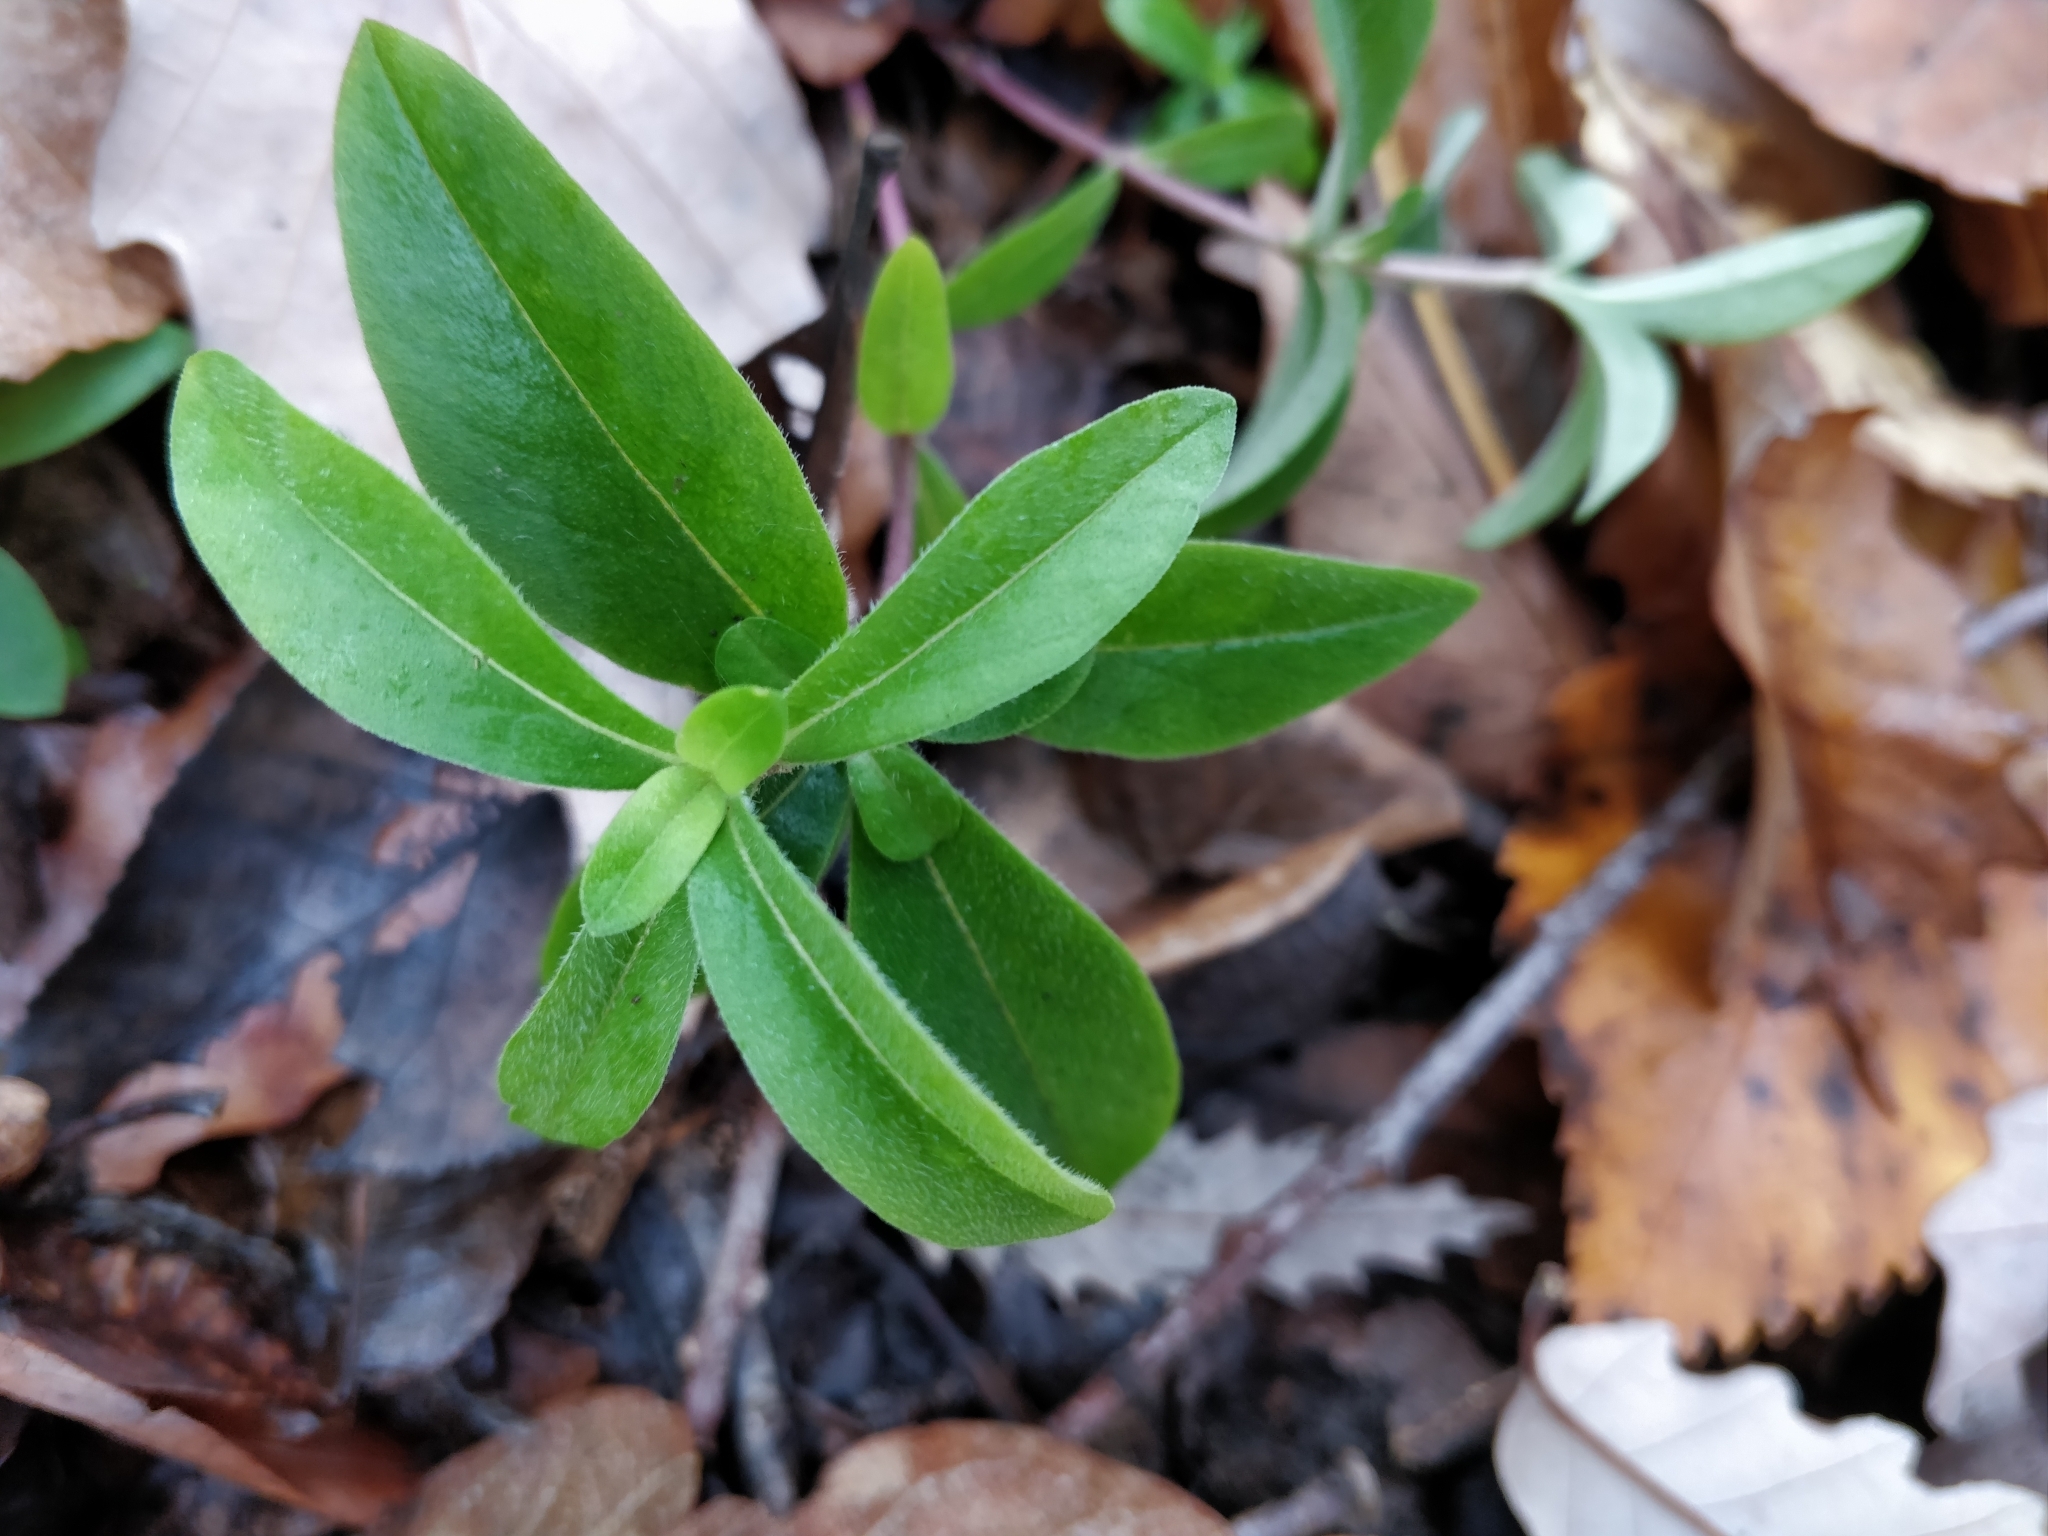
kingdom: Plantae
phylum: Tracheophyta
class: Magnoliopsida
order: Ericales
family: Polemoniaceae
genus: Phlox
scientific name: Phlox divaricata
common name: Blue phlox
